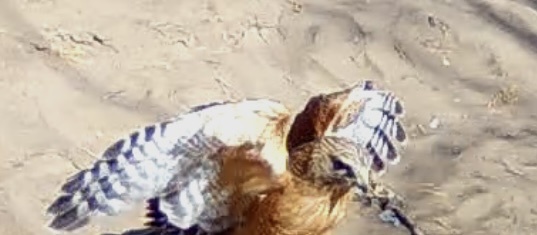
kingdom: Animalia
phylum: Chordata
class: Aves
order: Accipitriformes
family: Accipitridae
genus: Buteo
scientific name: Buteo lineatus
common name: Red-shouldered hawk
